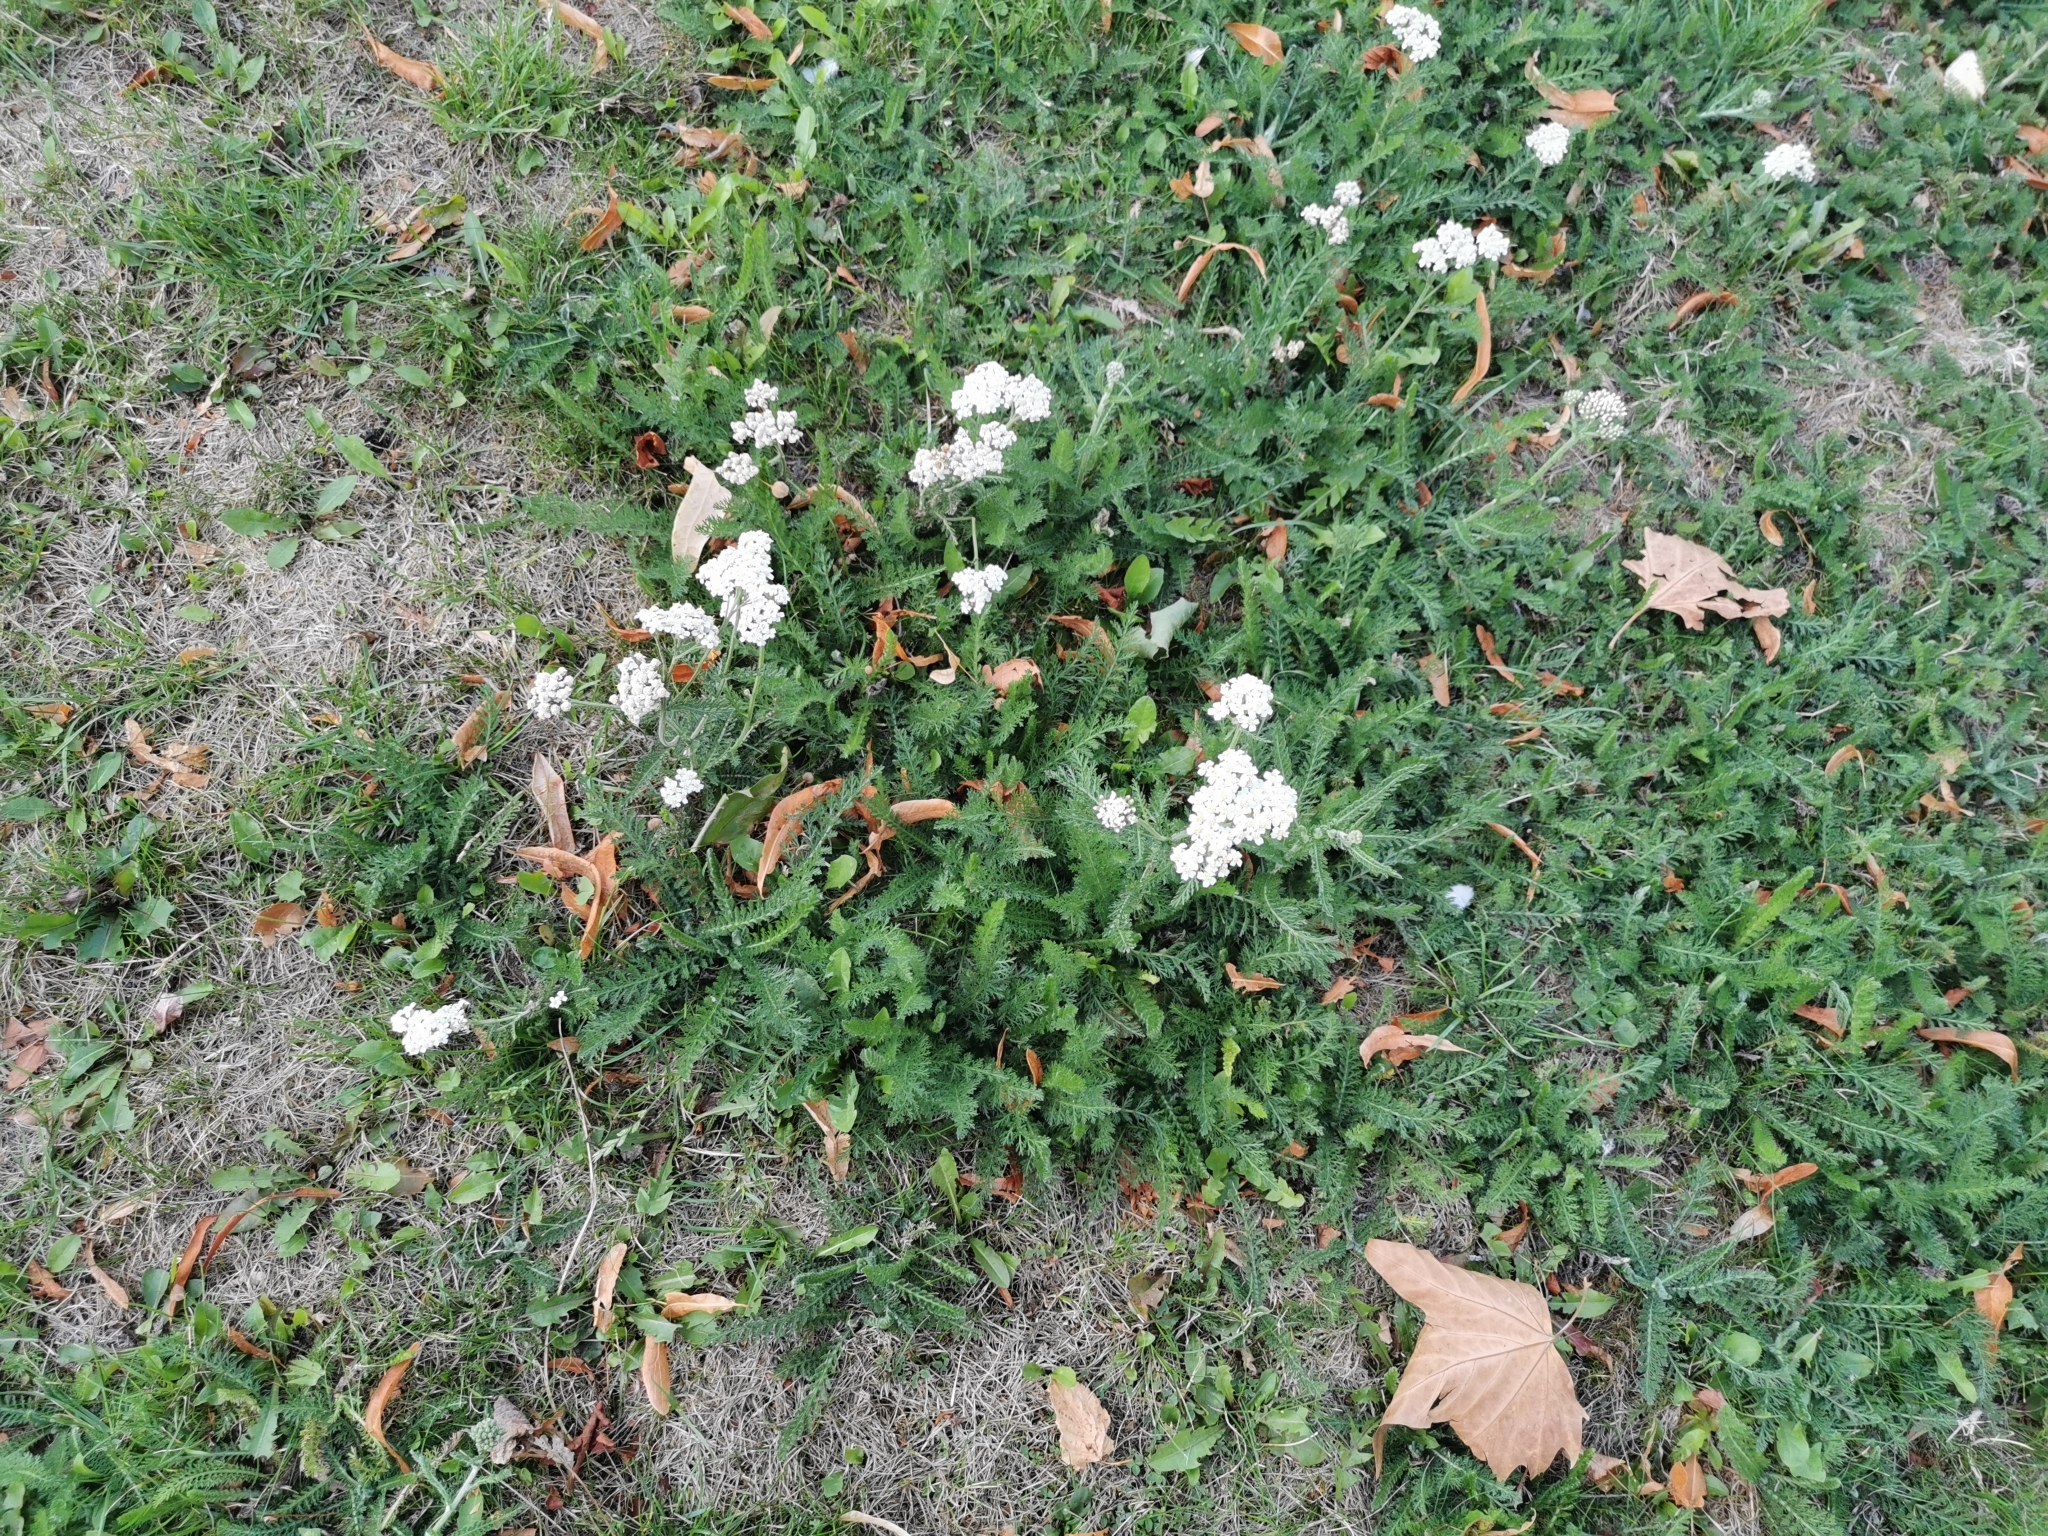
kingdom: Plantae
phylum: Tracheophyta
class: Magnoliopsida
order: Asterales
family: Asteraceae
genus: Achillea
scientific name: Achillea millefolium
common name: Yarrow
